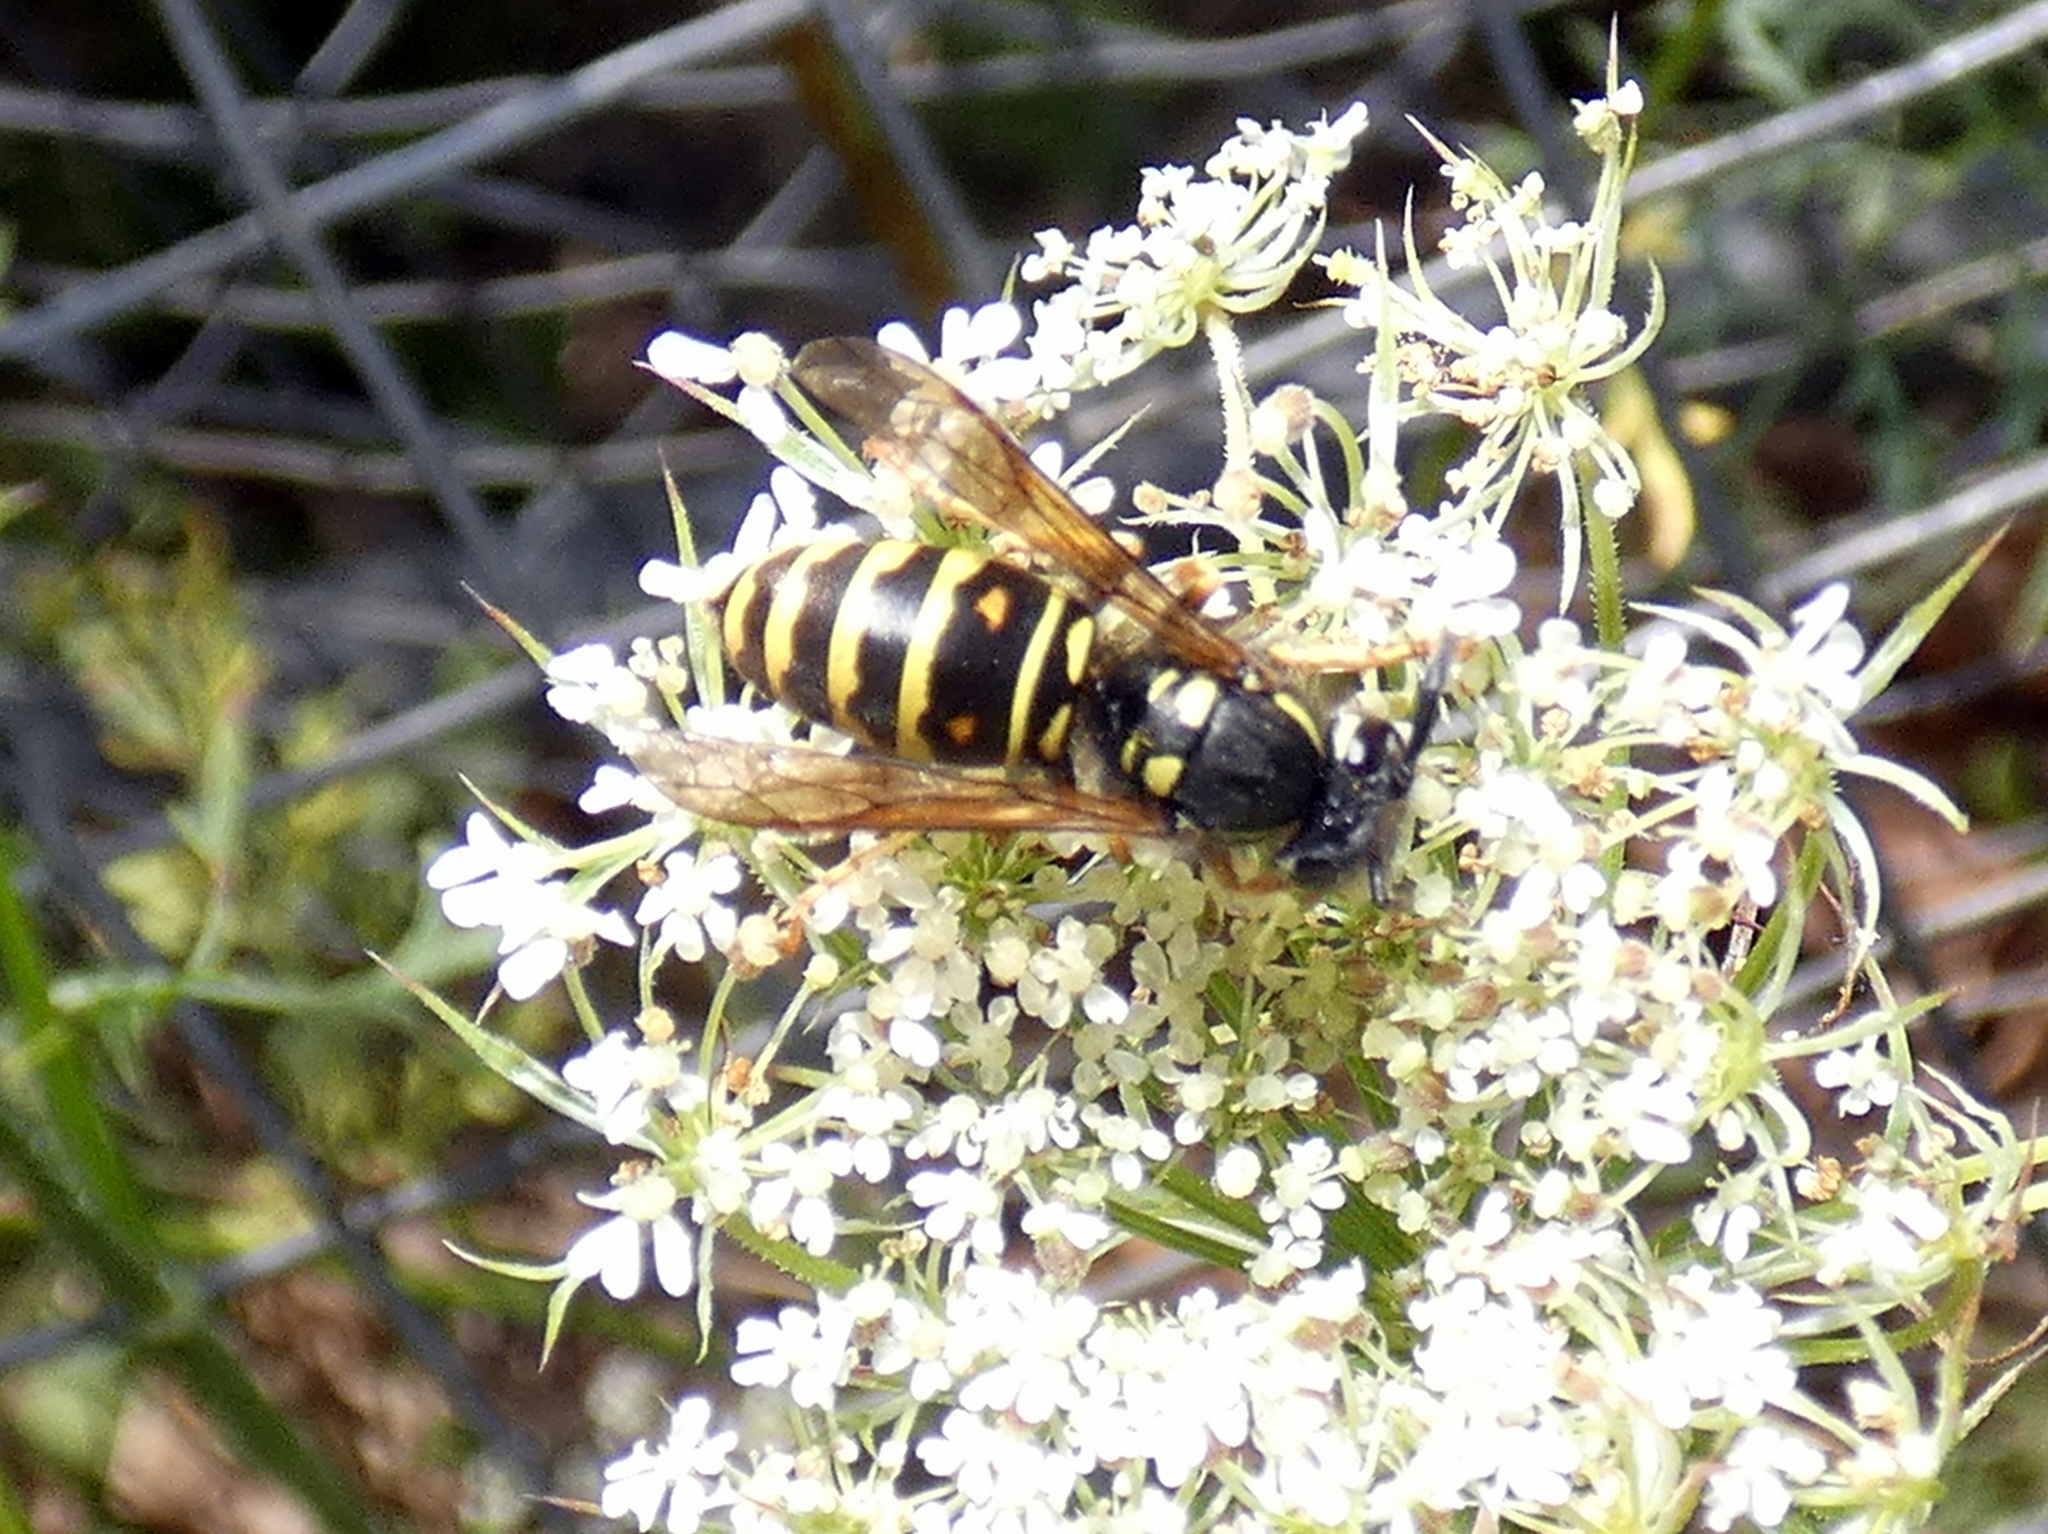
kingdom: Animalia
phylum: Arthropoda
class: Insecta
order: Hymenoptera
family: Vespidae
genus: Vespula
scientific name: Vespula acadica
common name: Forest yellowjacket
